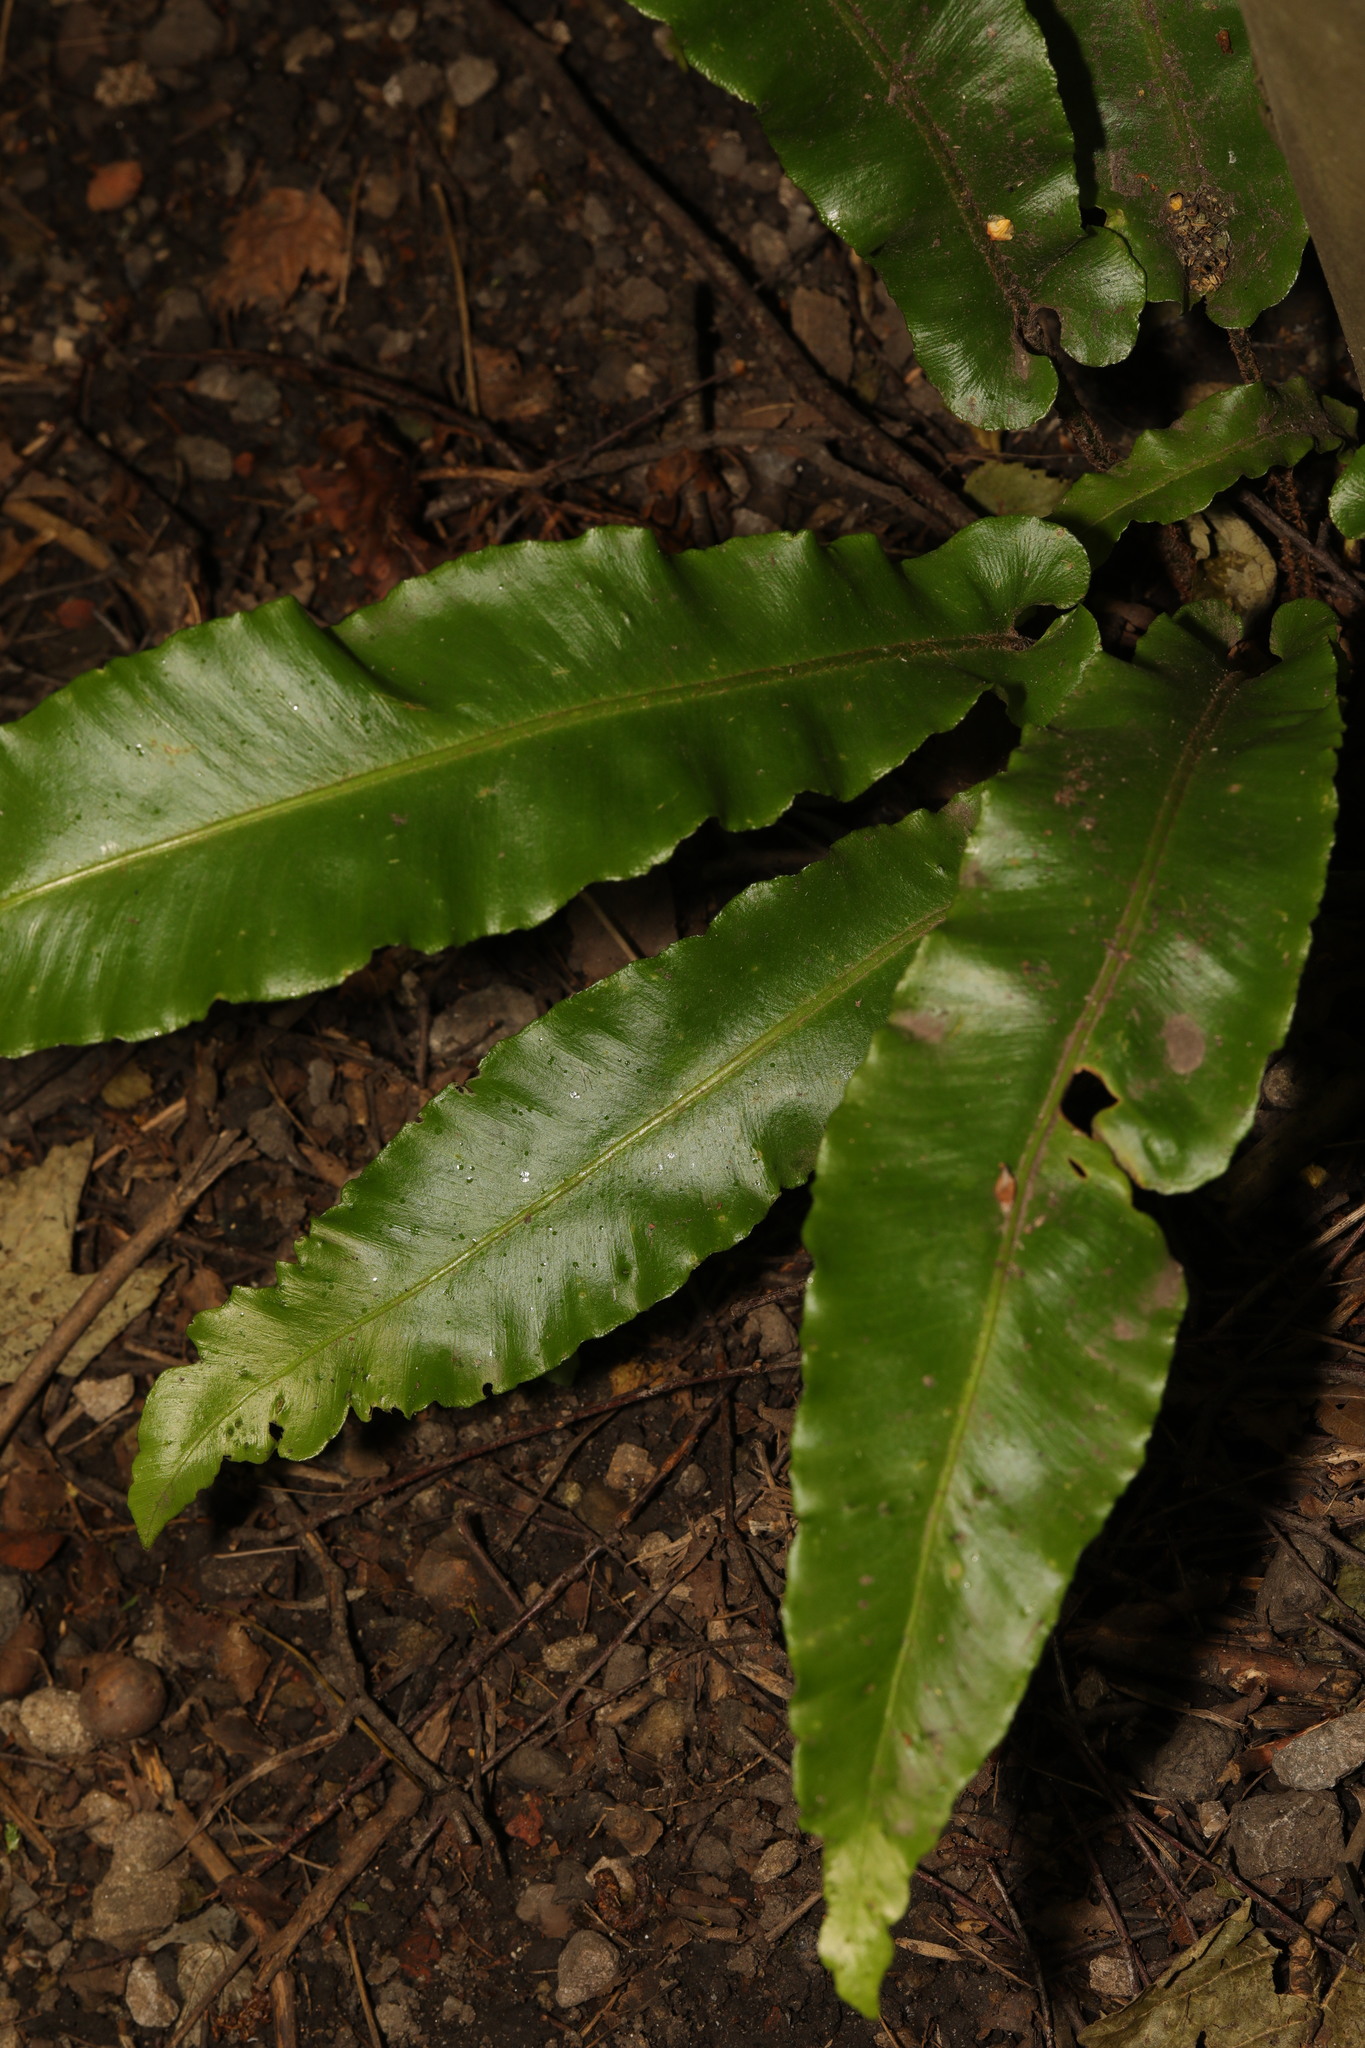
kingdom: Plantae
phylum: Tracheophyta
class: Polypodiopsida
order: Polypodiales
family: Aspleniaceae
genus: Asplenium
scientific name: Asplenium scolopendrium
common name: Hart's-tongue fern
